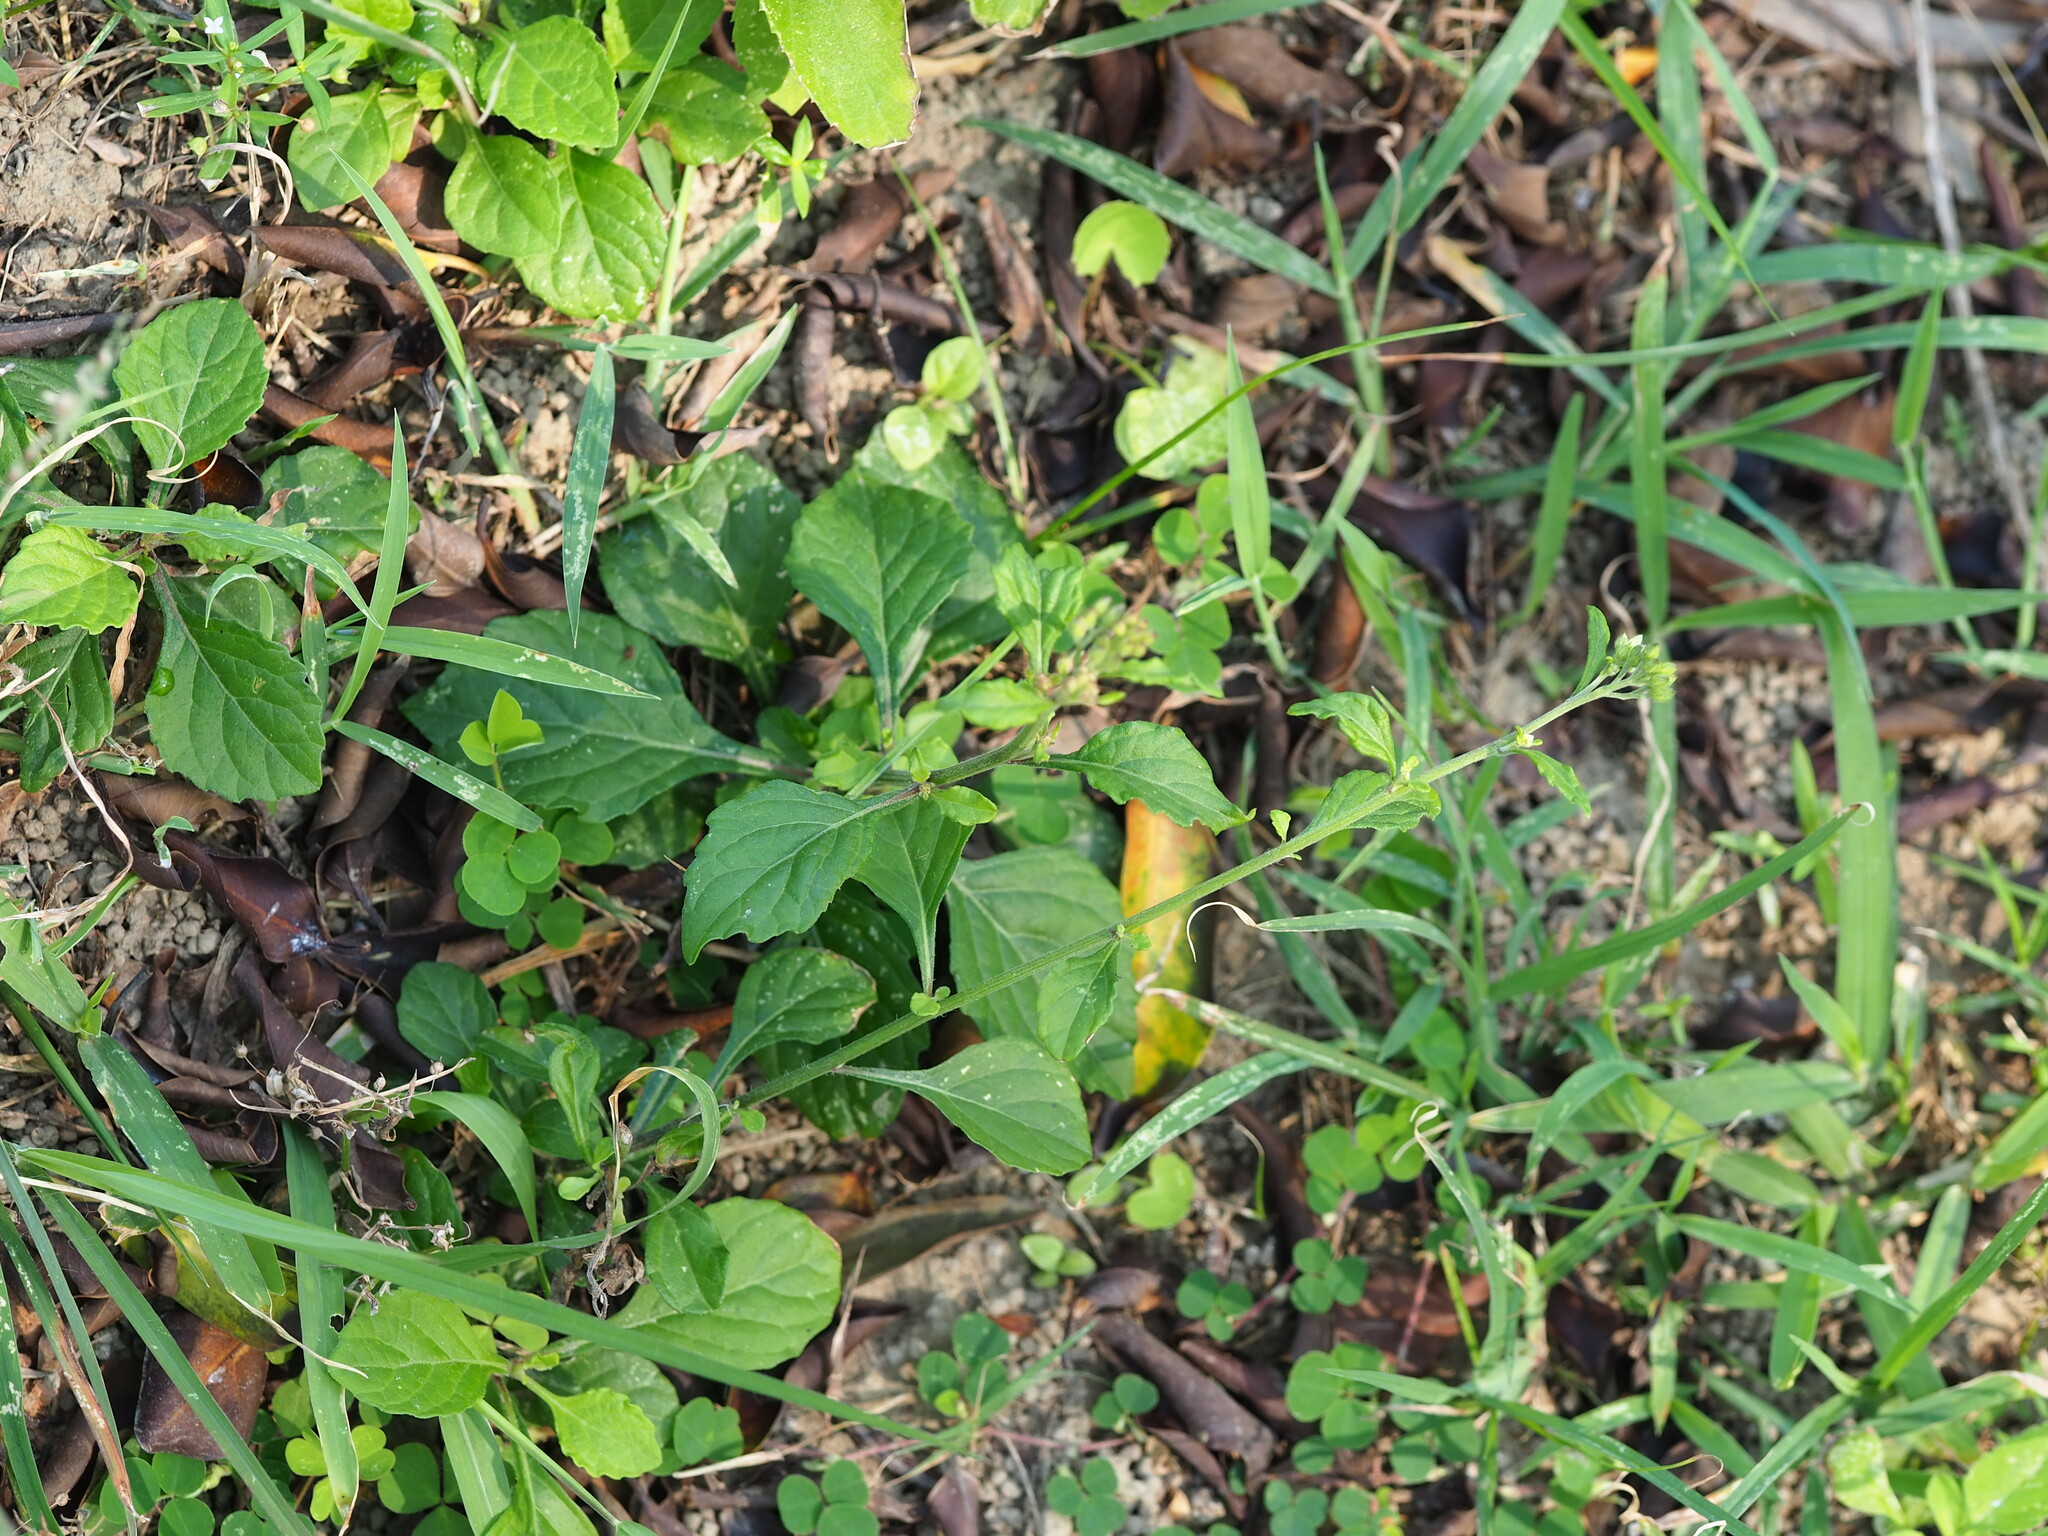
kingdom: Plantae
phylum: Tracheophyta
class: Magnoliopsida
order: Asterales
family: Asteraceae
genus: Cyanthillium
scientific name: Cyanthillium cinereum
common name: Little ironweed
